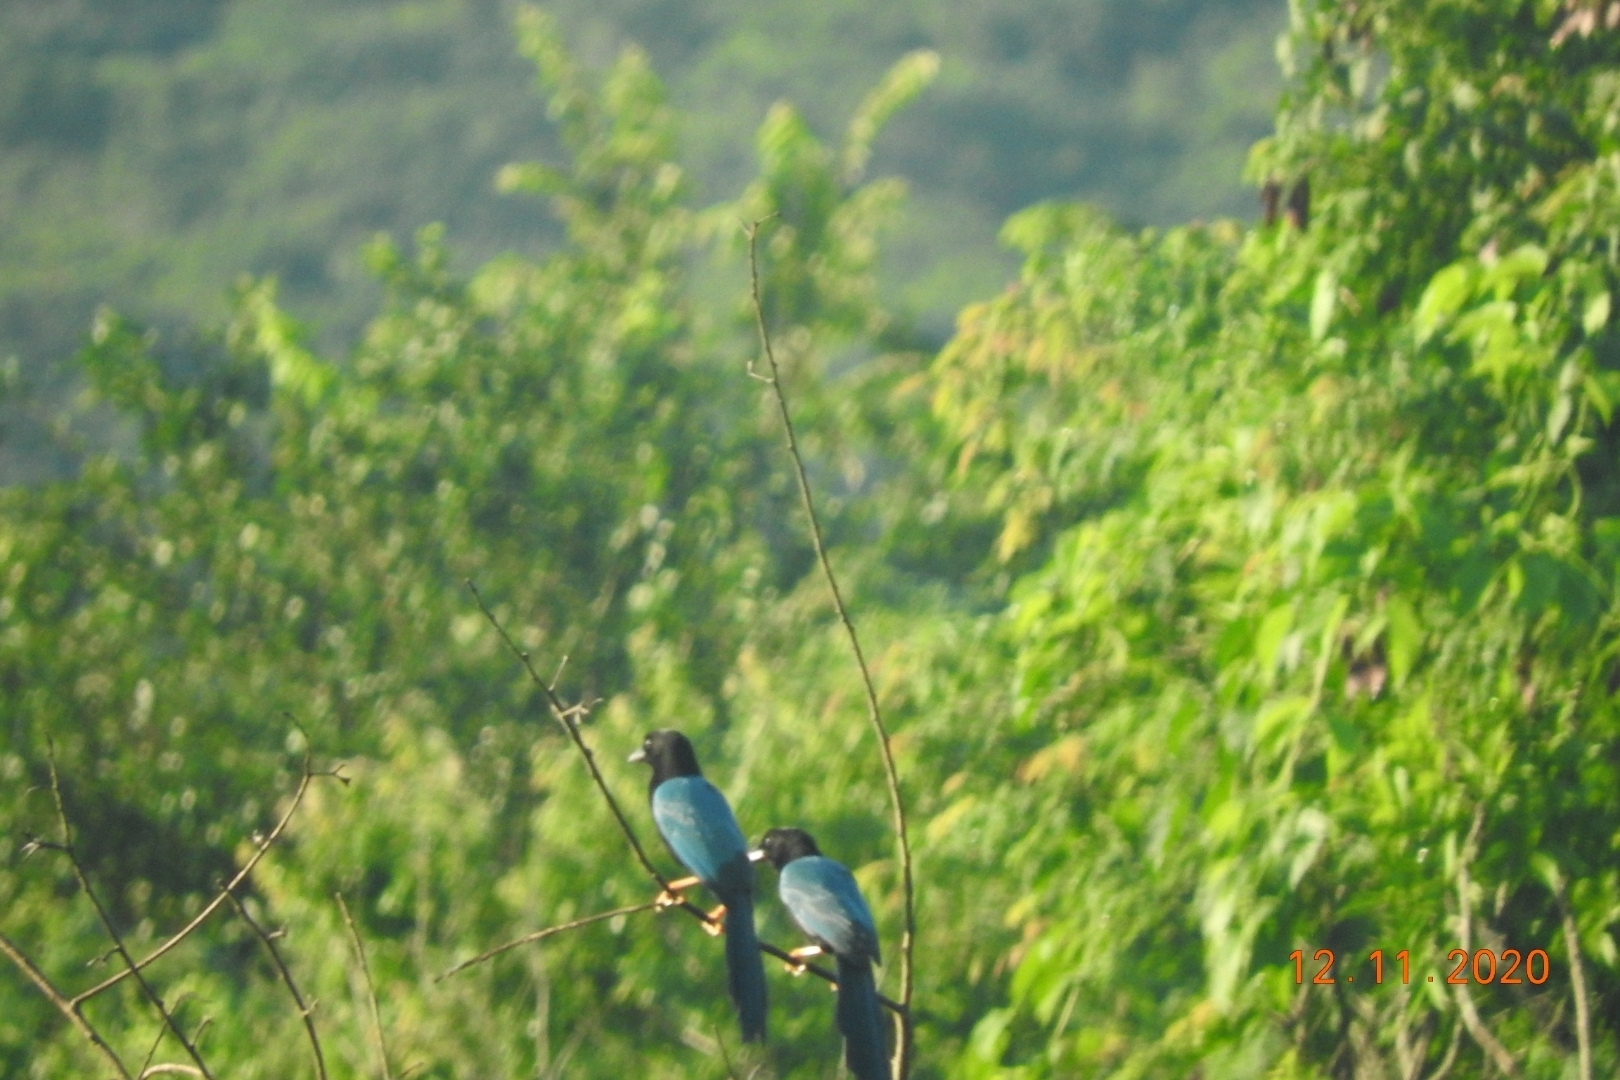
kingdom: Animalia
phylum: Chordata
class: Aves
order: Passeriformes
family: Corvidae
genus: Cyanocorax
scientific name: Cyanocorax yucatanicus
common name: Yucatan jay
